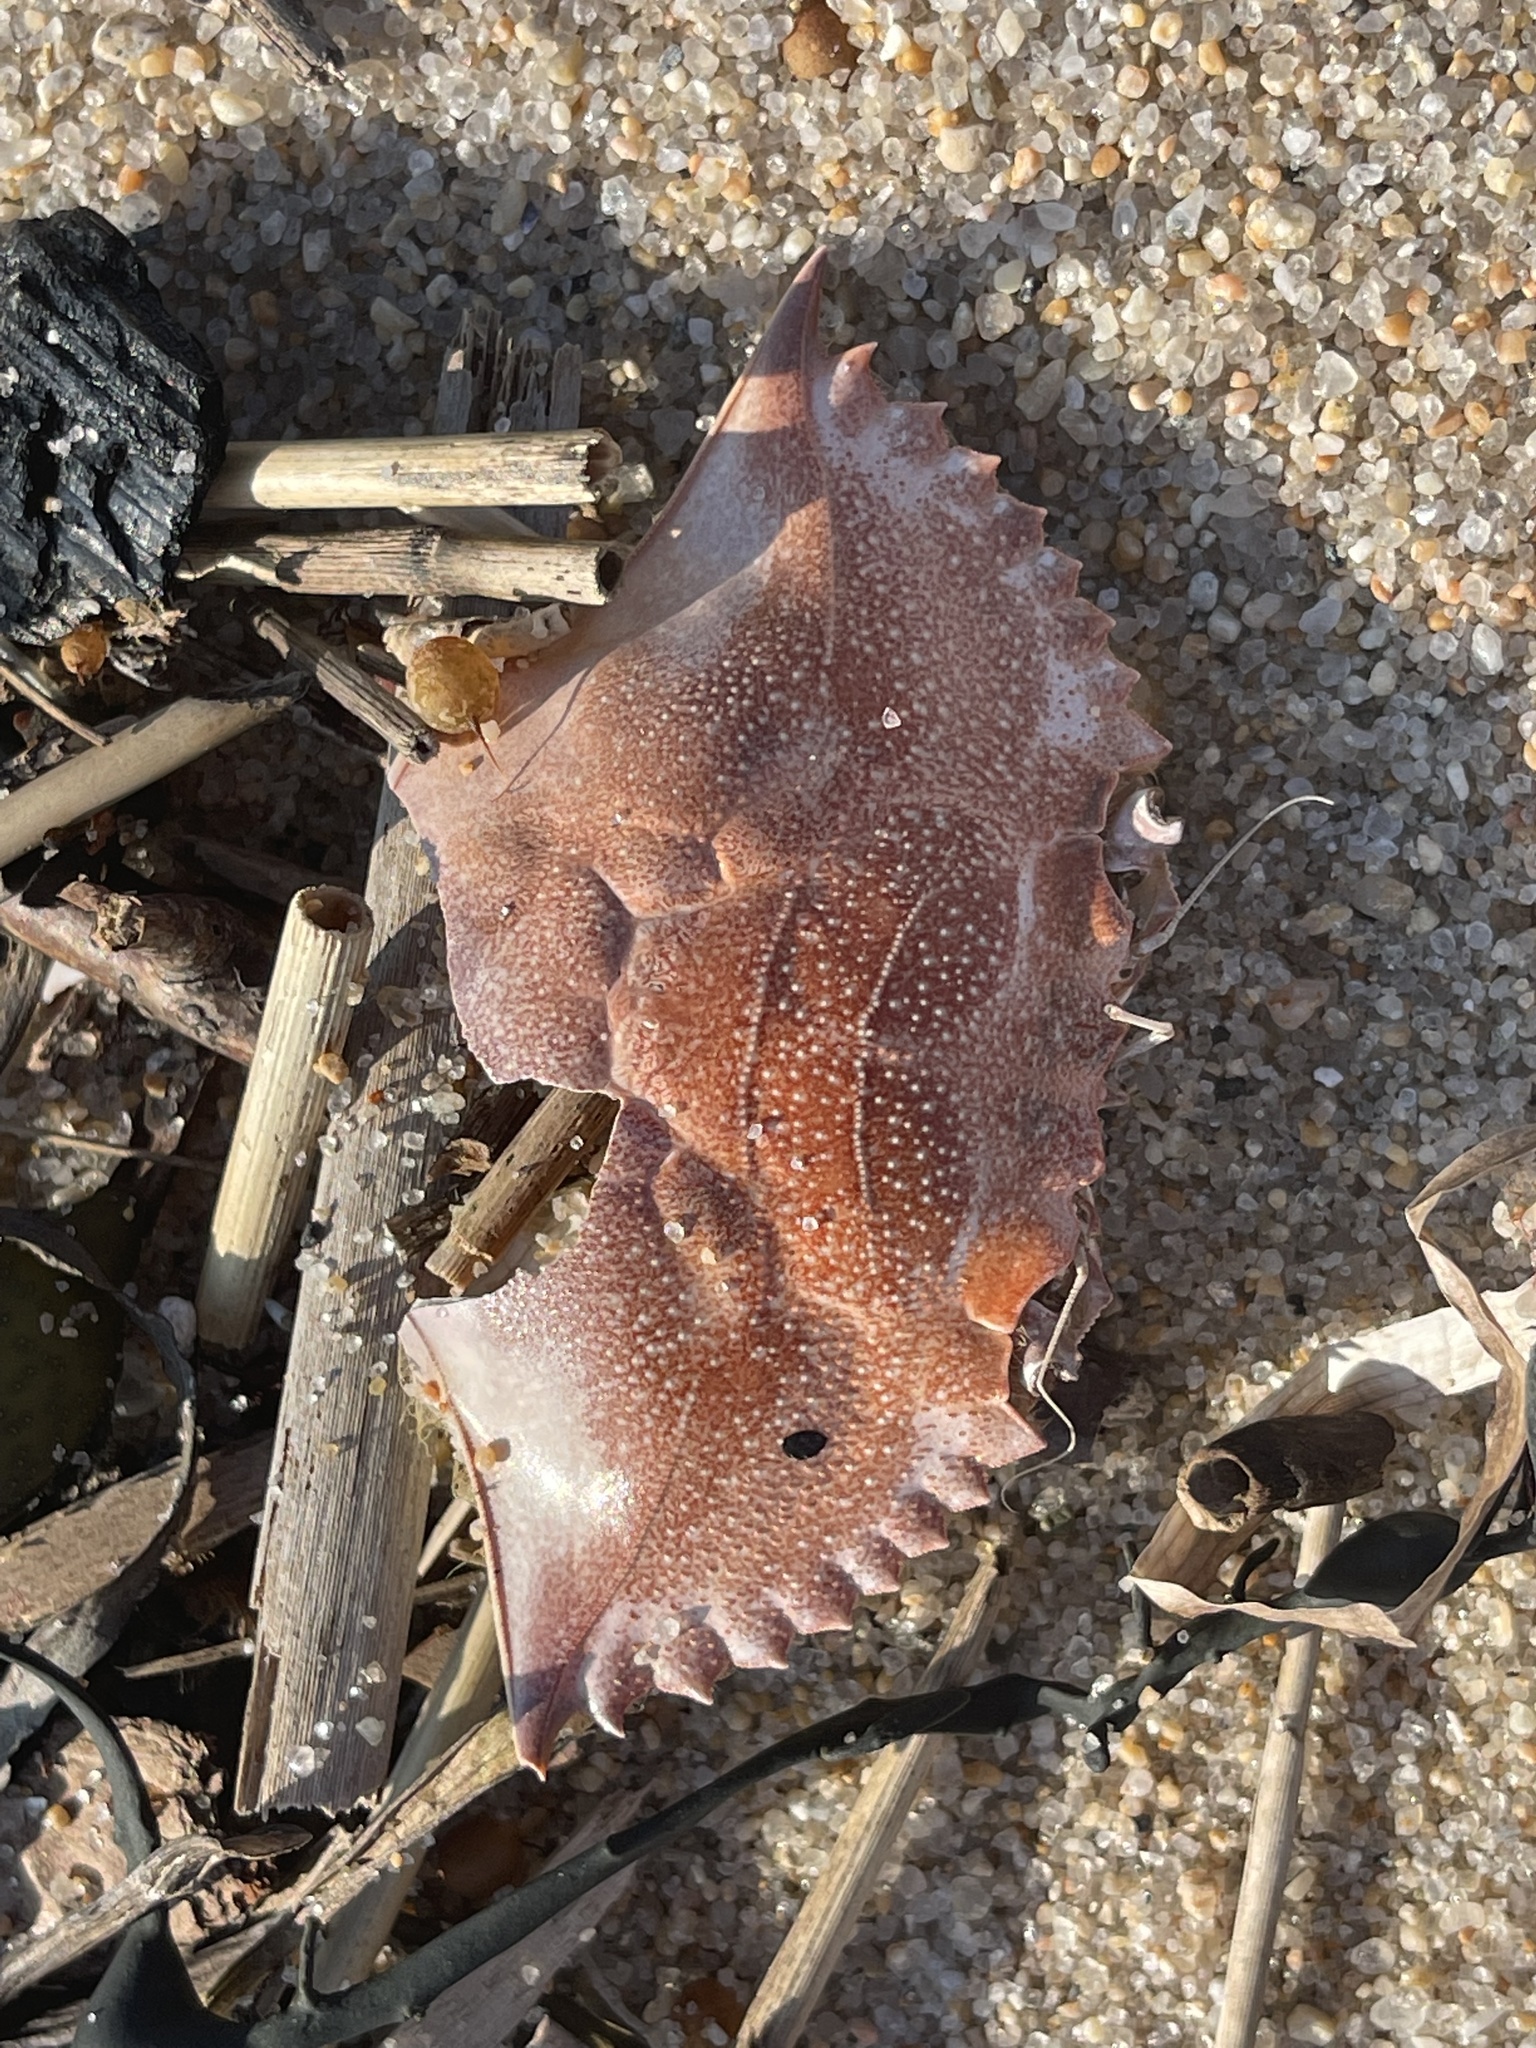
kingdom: Animalia
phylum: Arthropoda
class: Malacostraca
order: Decapoda
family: Portunidae
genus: Callinectes
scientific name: Callinectes sapidus
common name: Blue crab
